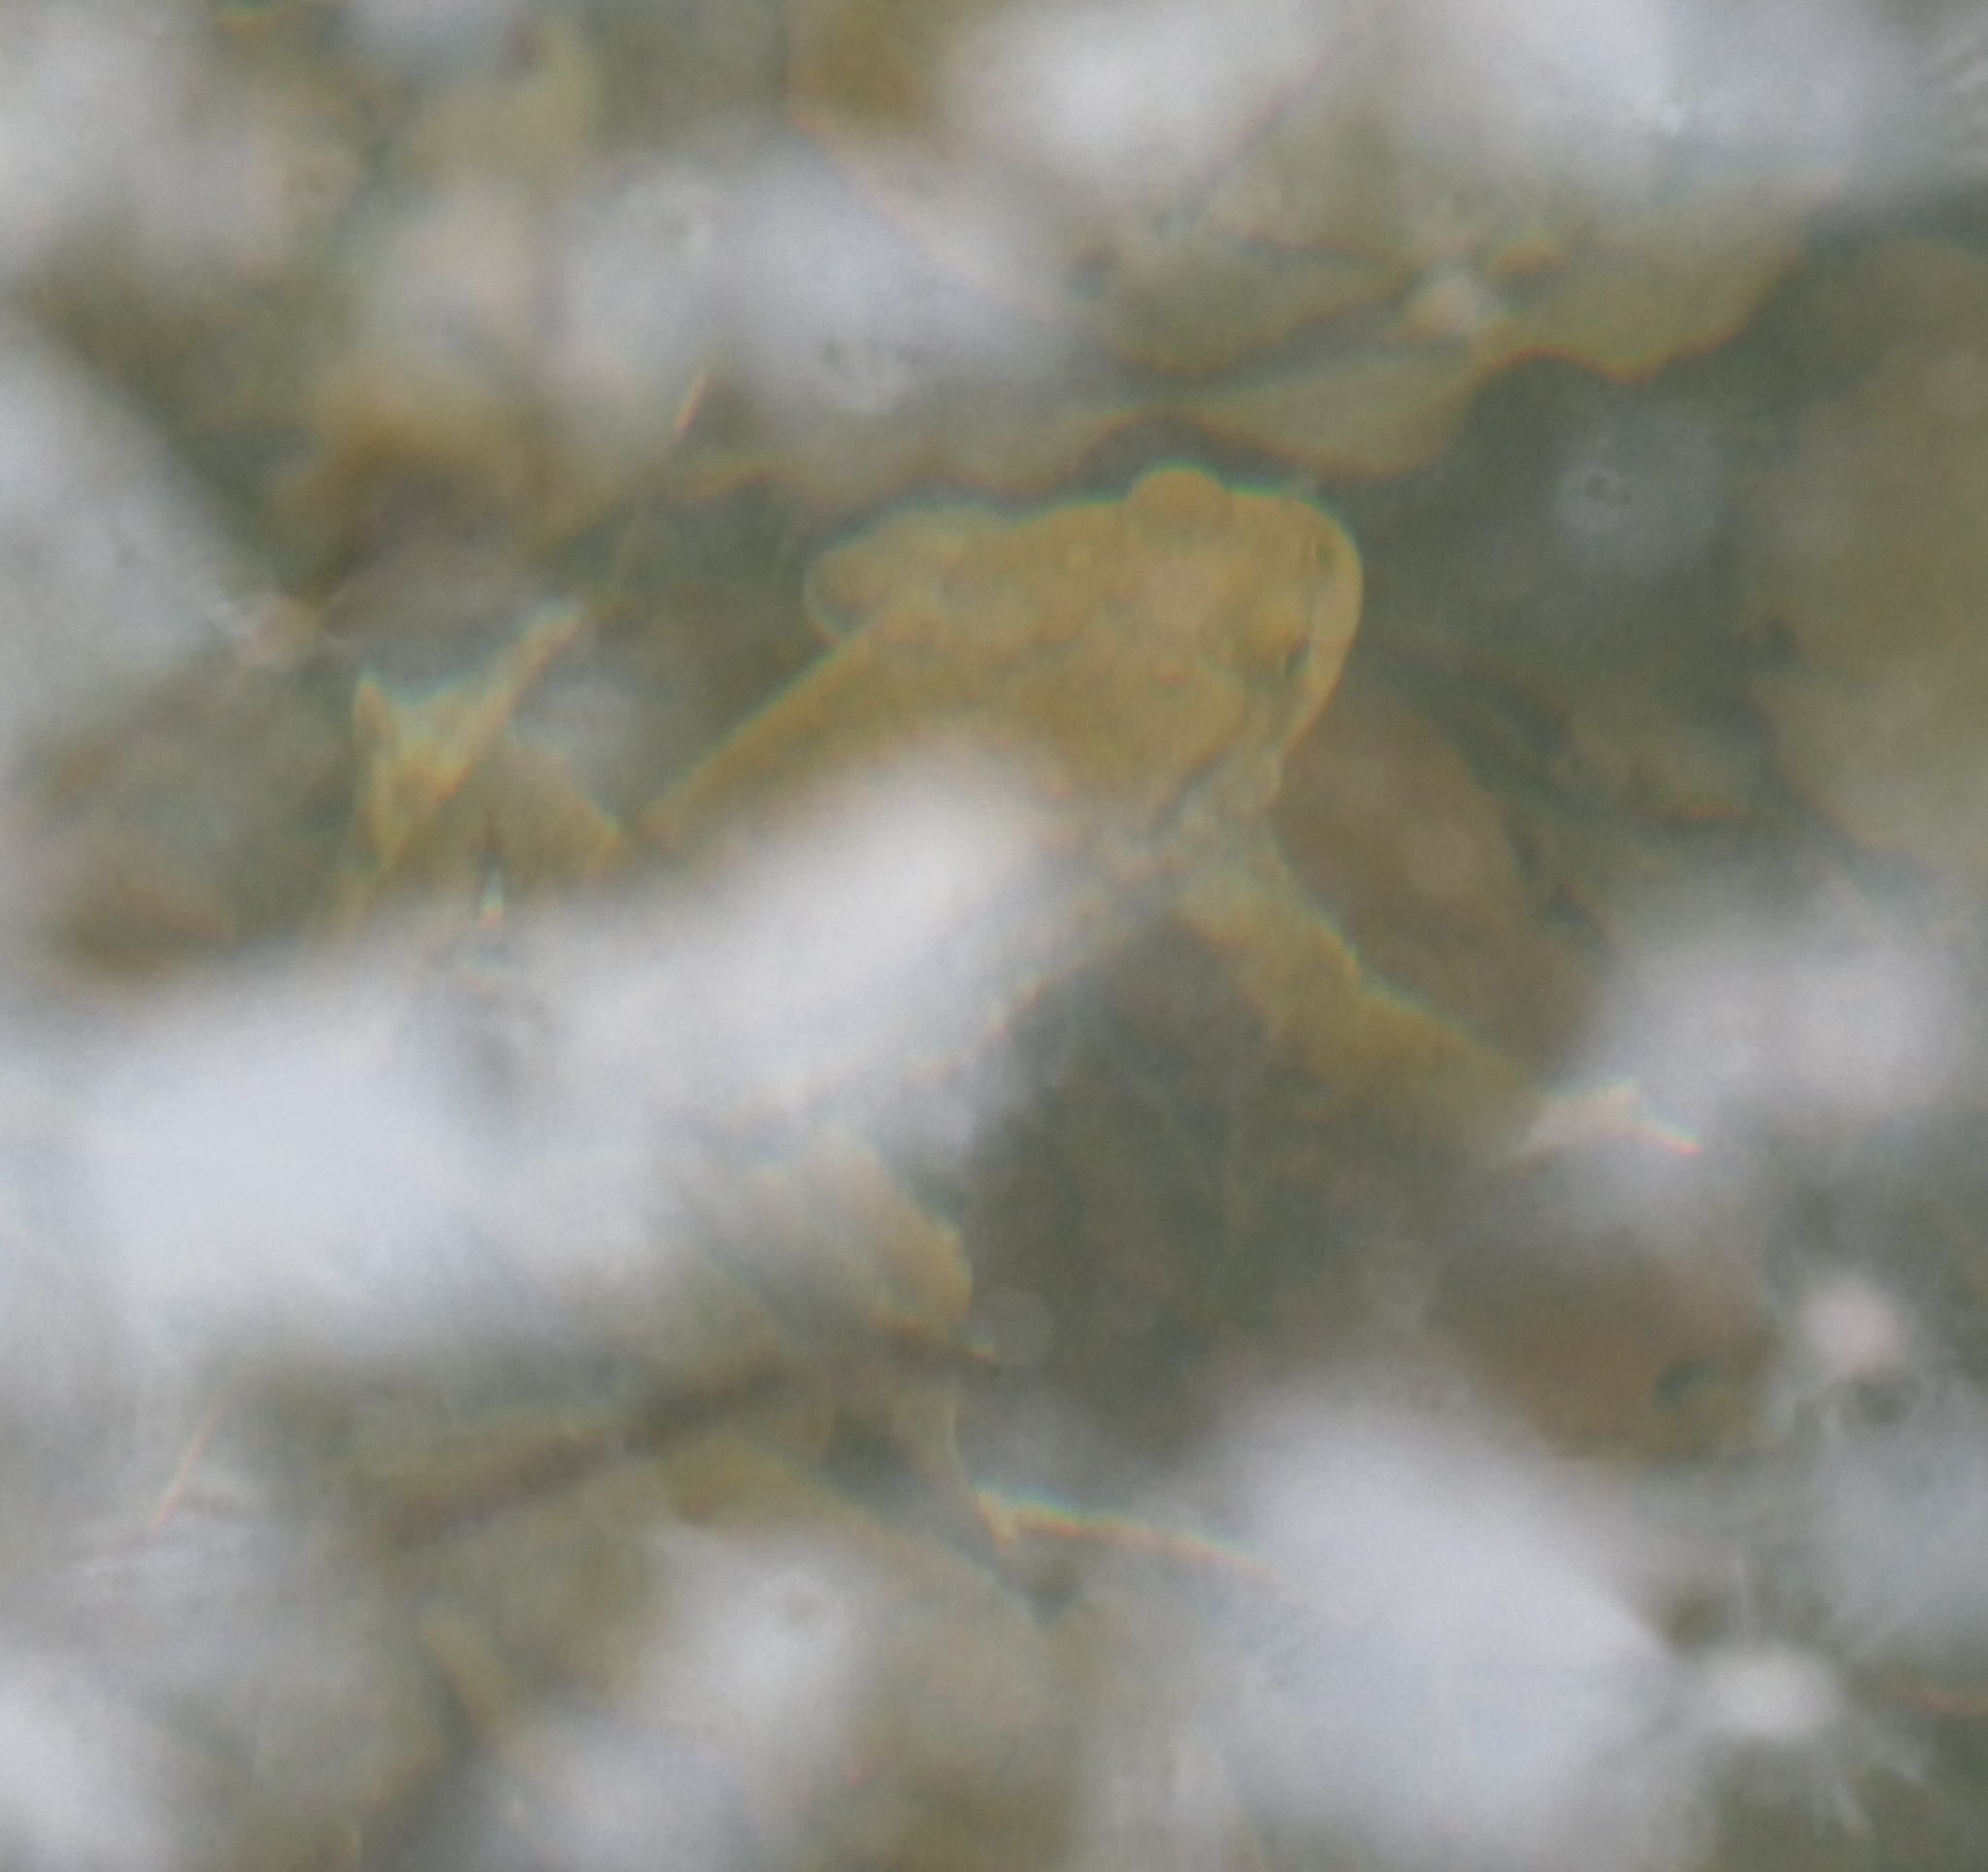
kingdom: Animalia
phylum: Chordata
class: Amphibia
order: Anura
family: Bufonidae
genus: Bufo
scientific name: Bufo bufo
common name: Common toad
